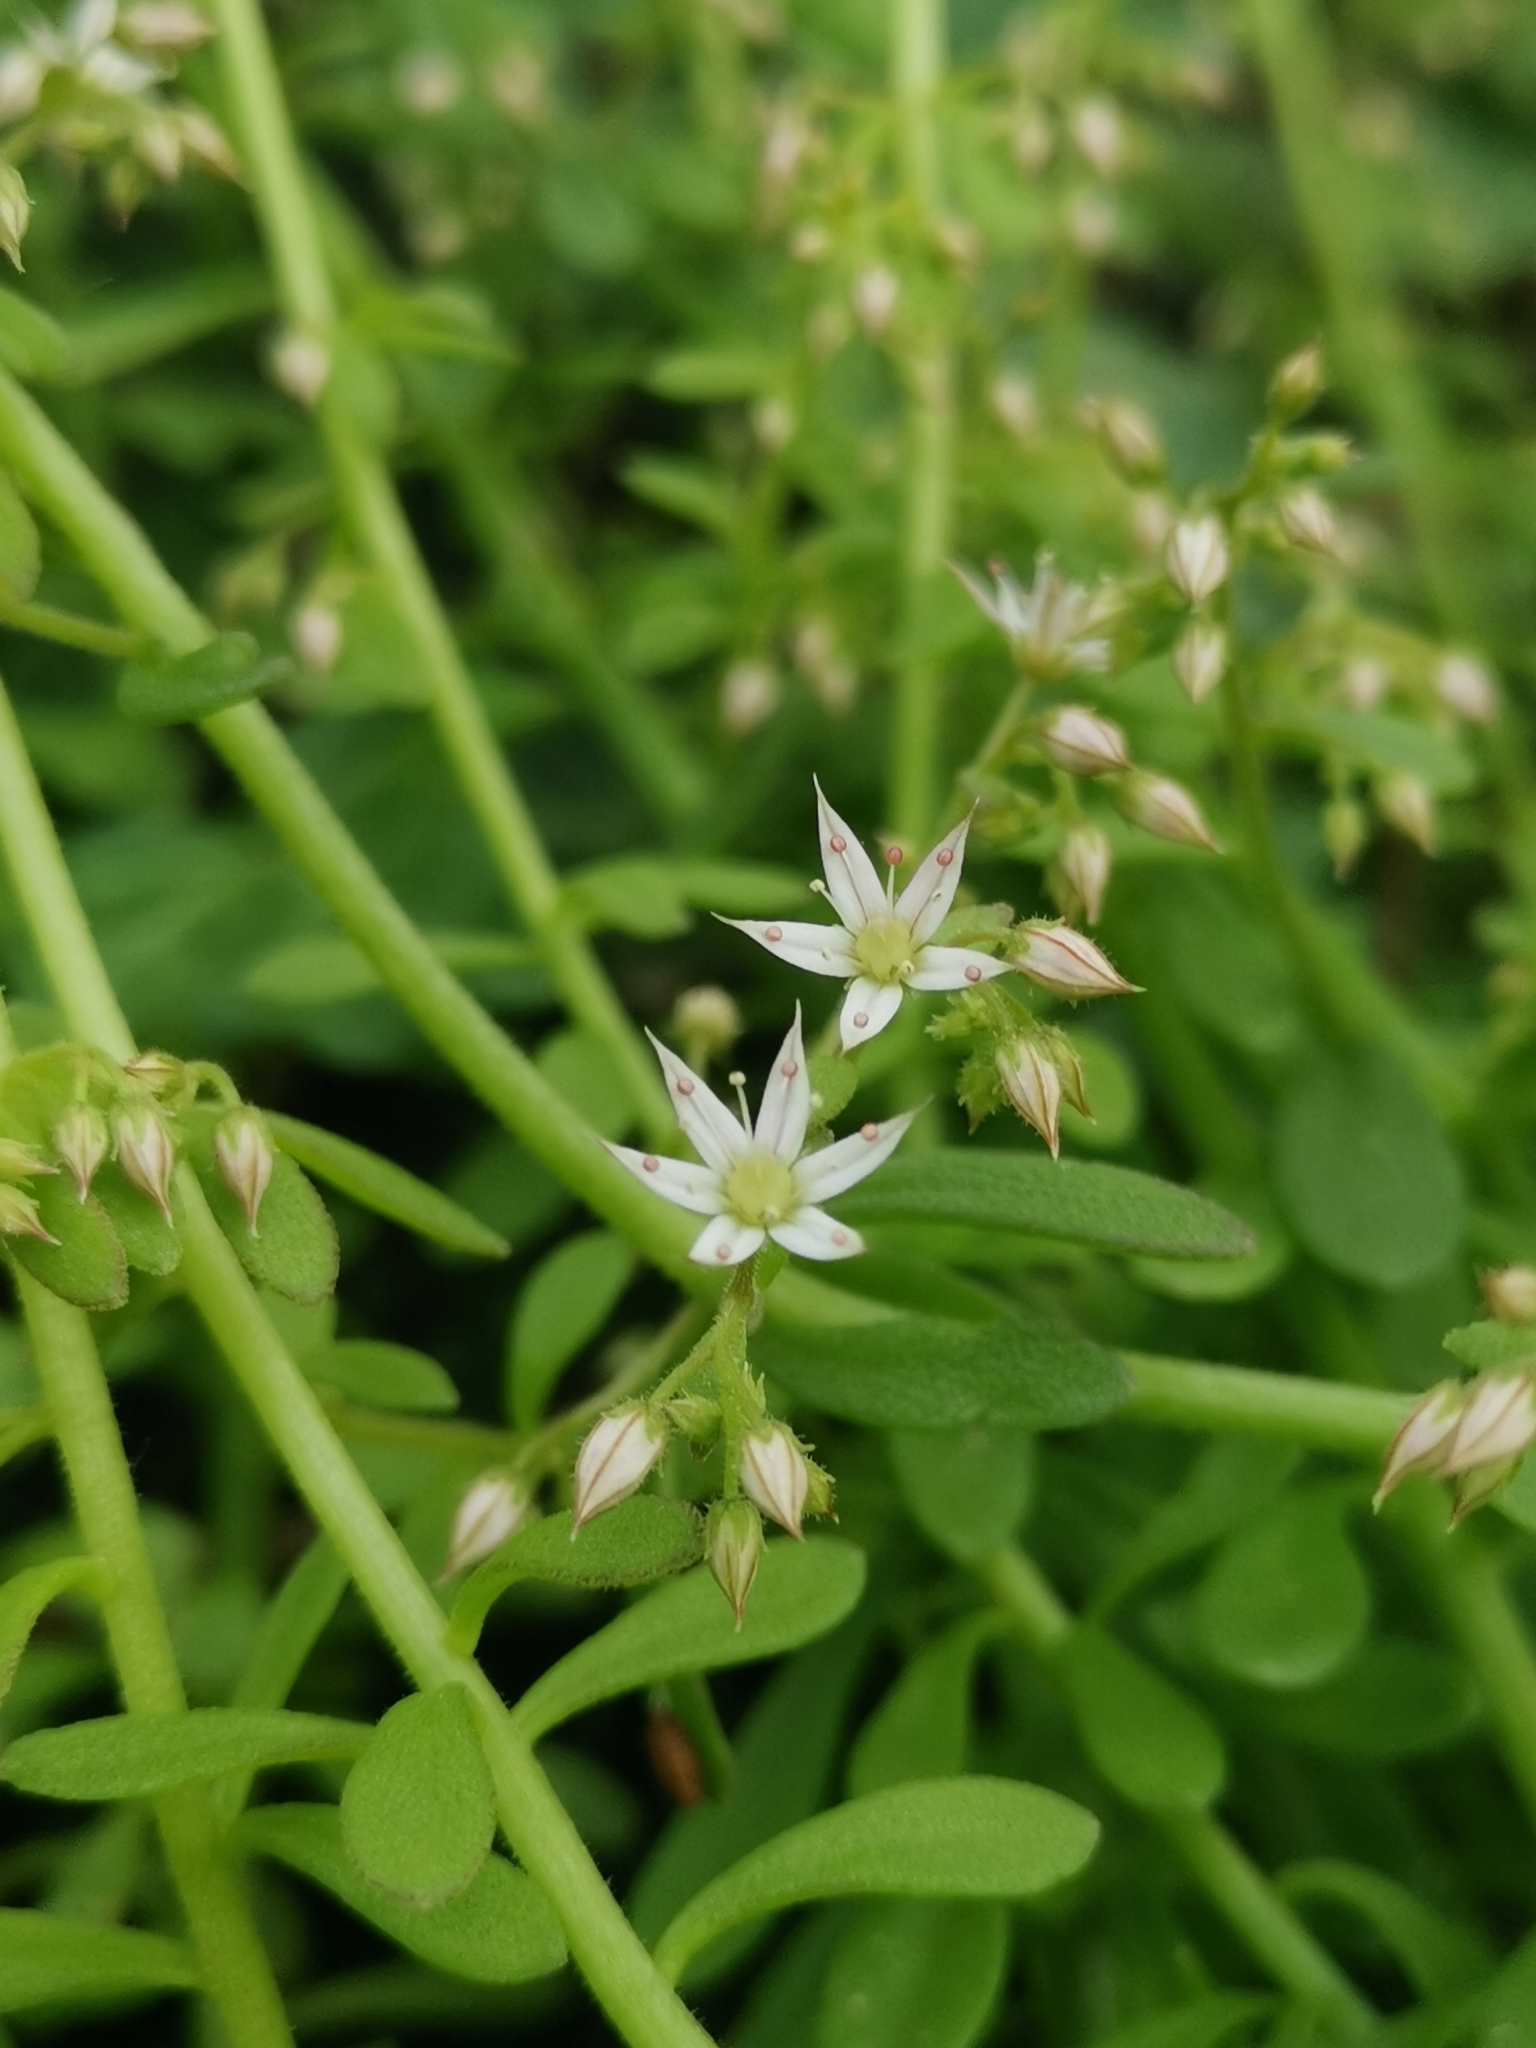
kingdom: Plantae
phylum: Tracheophyta
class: Magnoliopsida
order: Saxifragales
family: Crassulaceae
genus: Sedum
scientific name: Sedum cepaea
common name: Pink stonecrop
